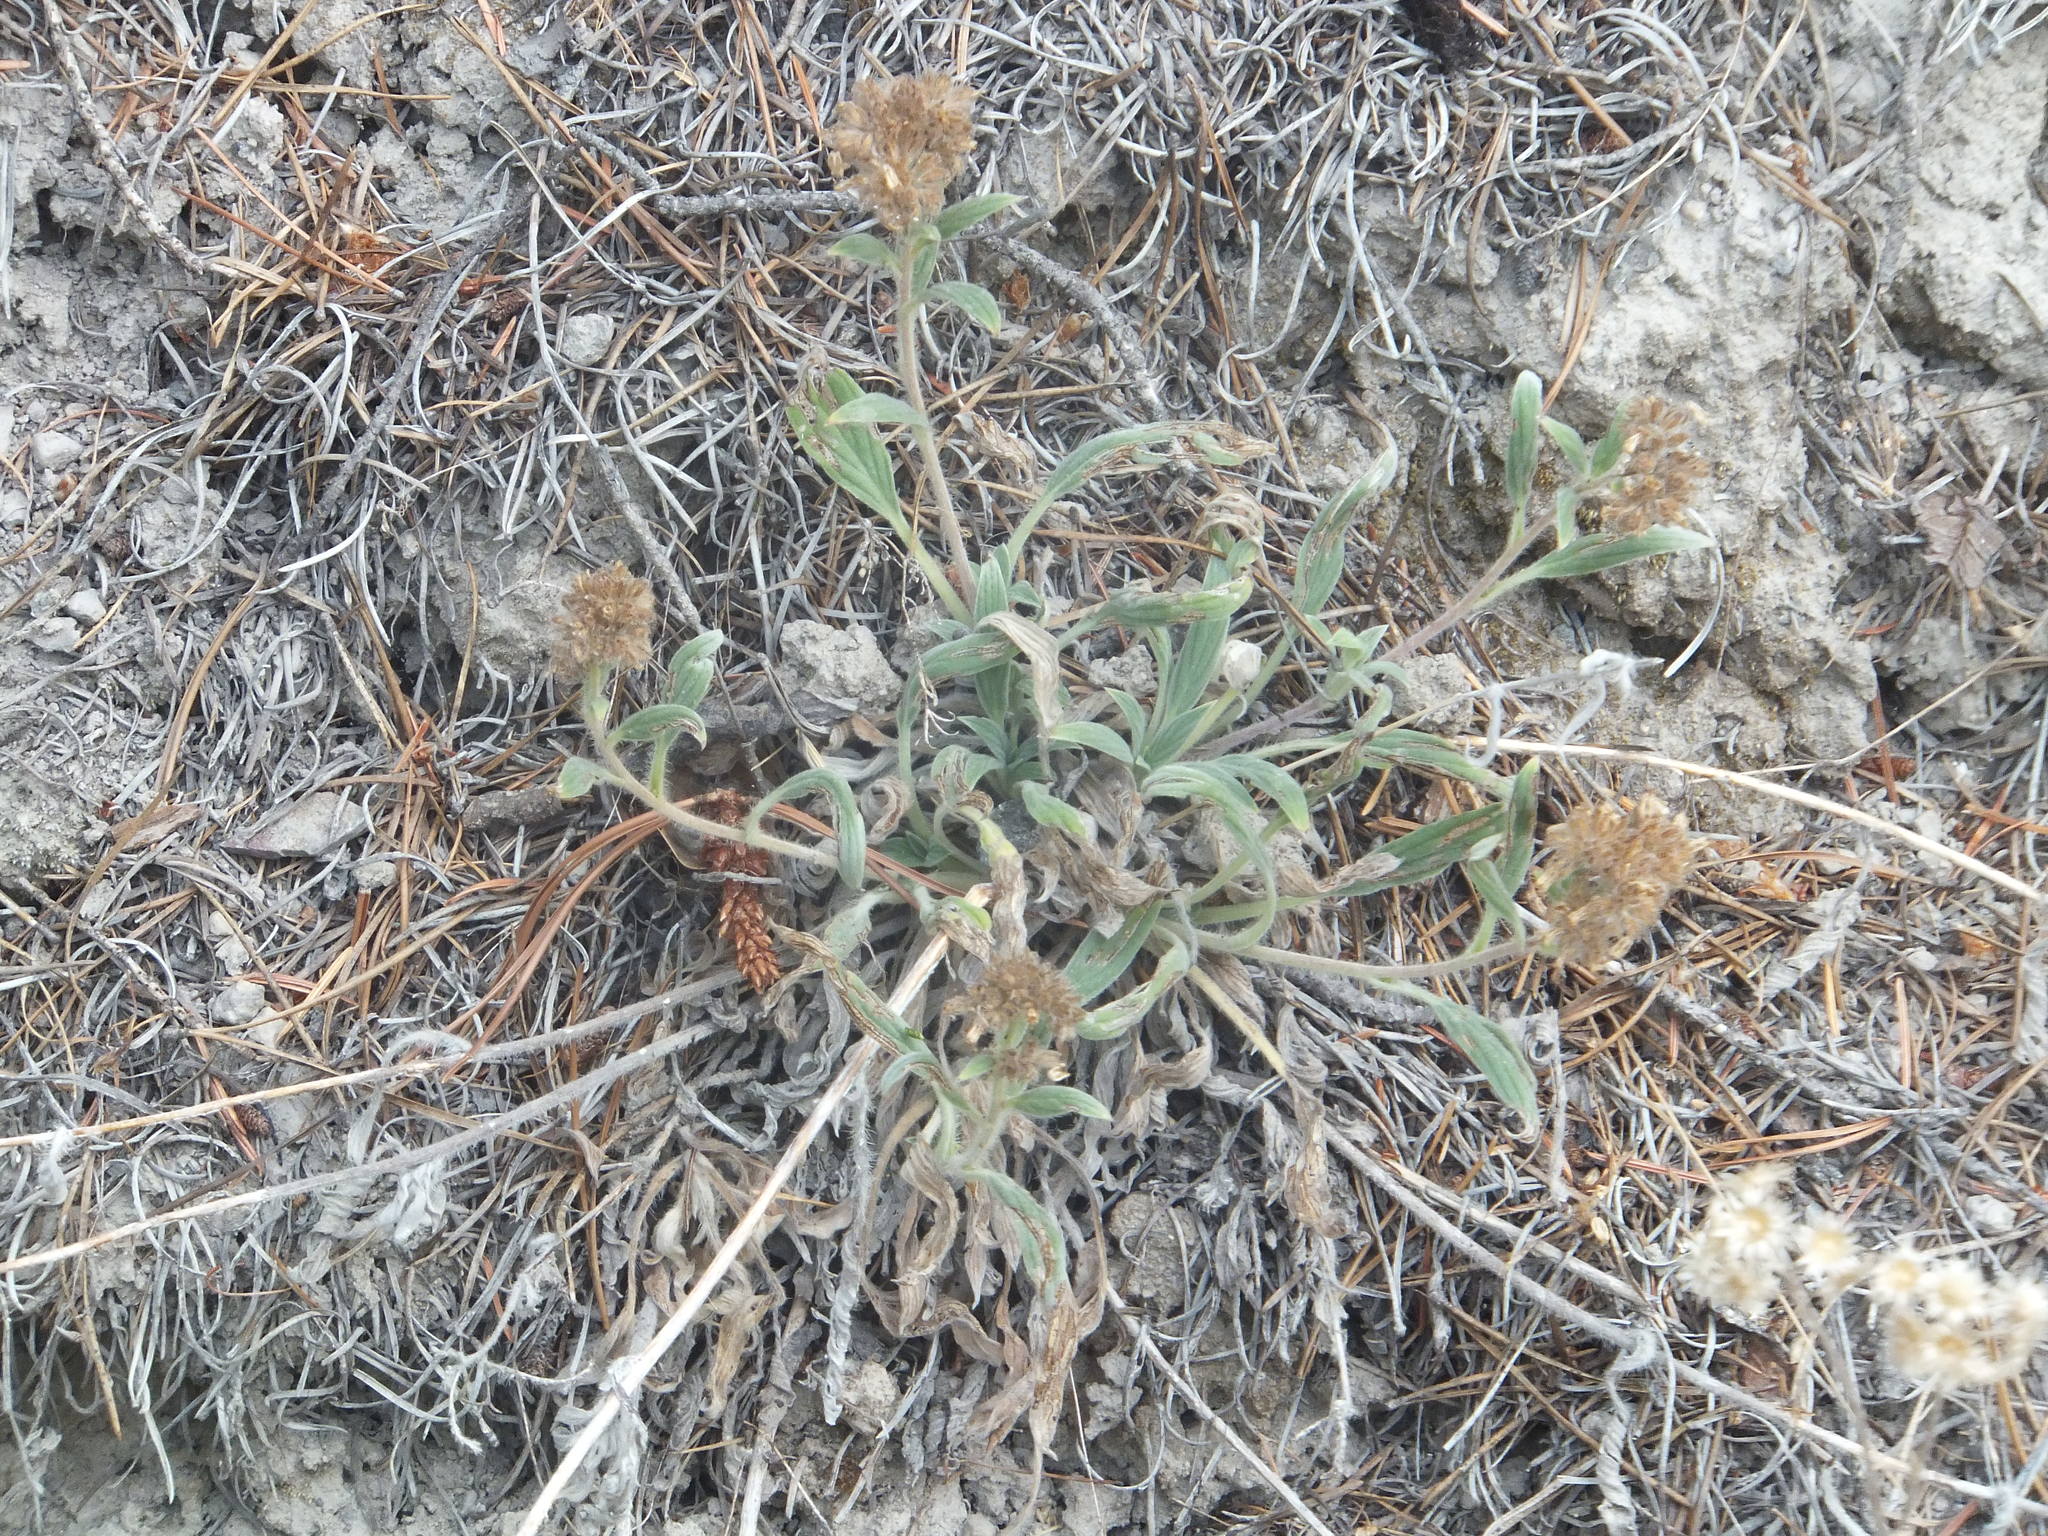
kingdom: Plantae
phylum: Tracheophyta
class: Magnoliopsida
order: Boraginales
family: Hydrophyllaceae
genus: Phacelia
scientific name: Phacelia hastata
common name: Silver-leaved phacelia
